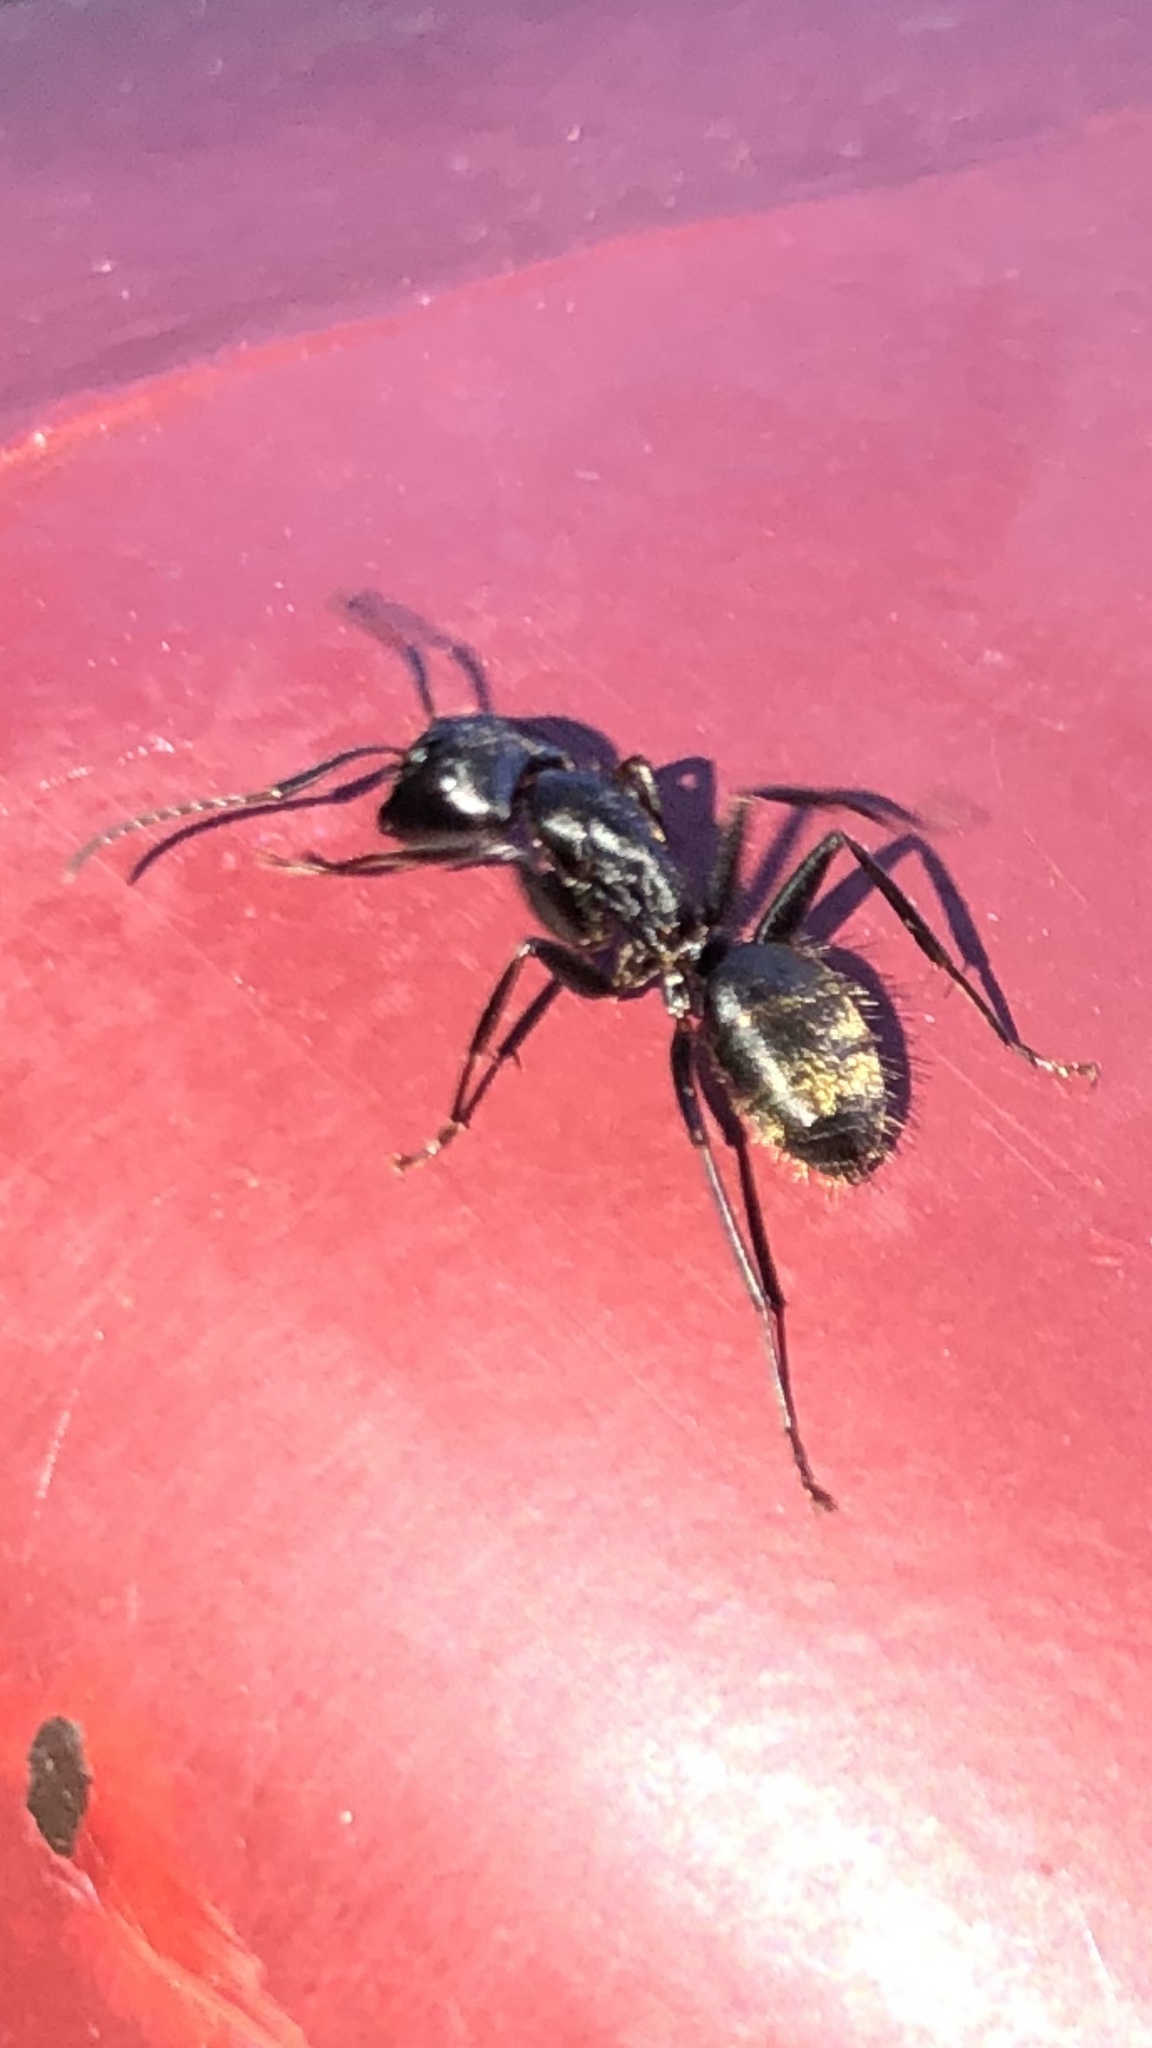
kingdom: Animalia
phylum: Arthropoda
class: Insecta
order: Hymenoptera
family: Formicidae
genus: Camponotus
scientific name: Camponotus pennsylvanicus
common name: Black carpenter ant
